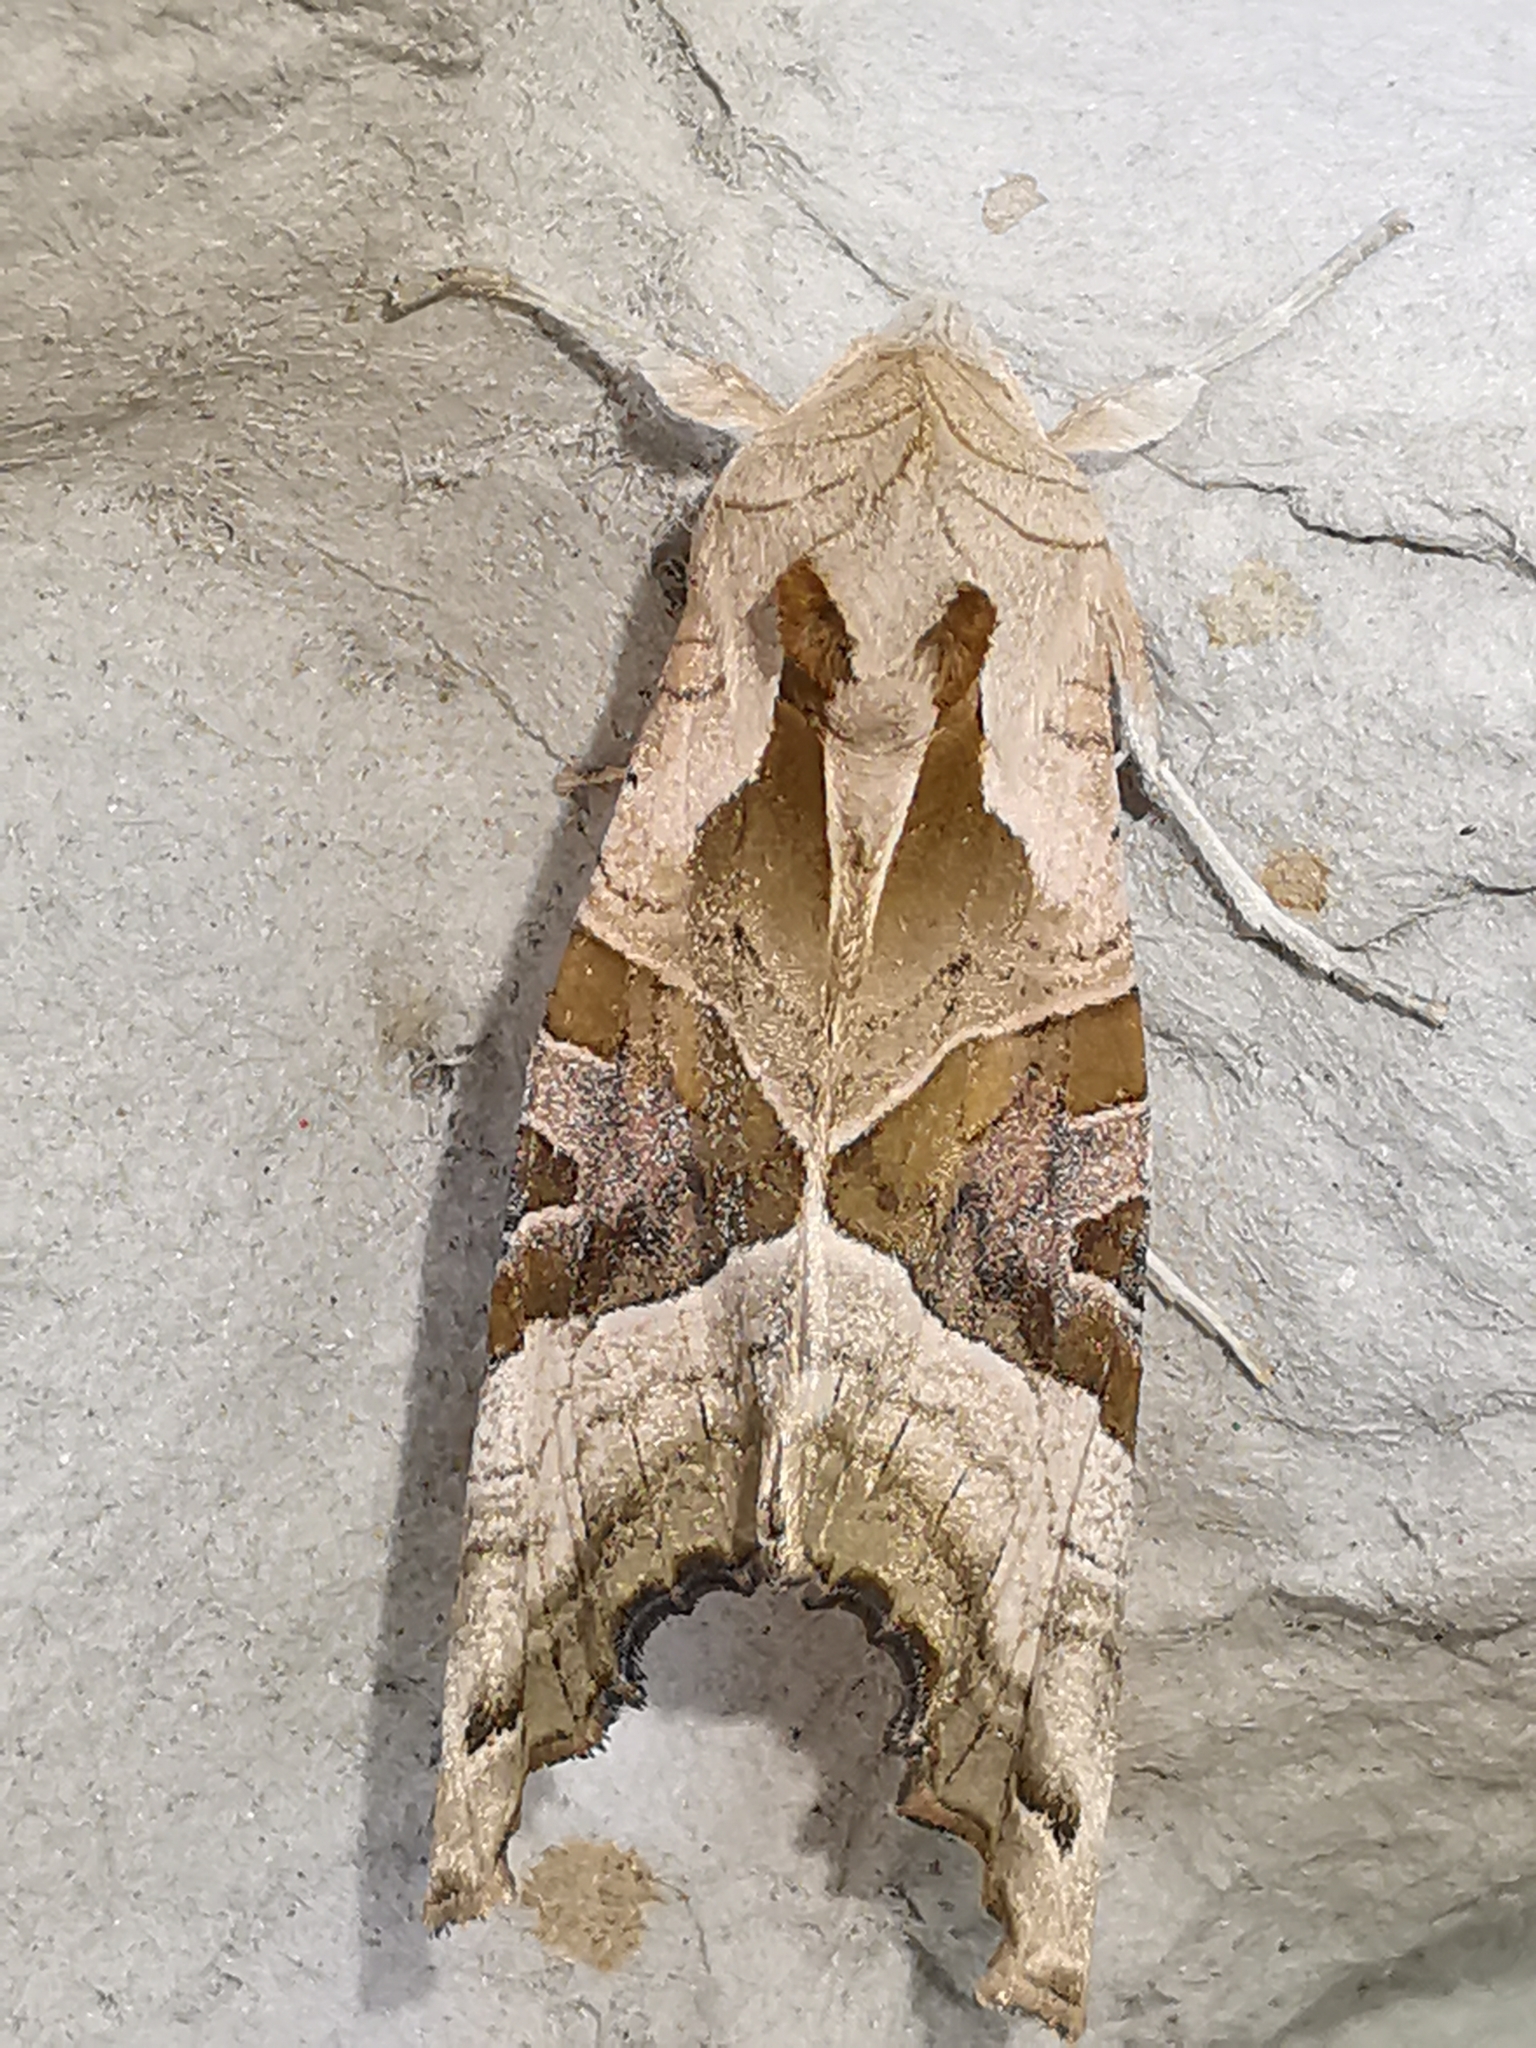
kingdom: Animalia
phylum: Arthropoda
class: Insecta
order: Lepidoptera
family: Noctuidae
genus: Phlogophora
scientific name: Phlogophora meticulosa
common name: Angle shades
